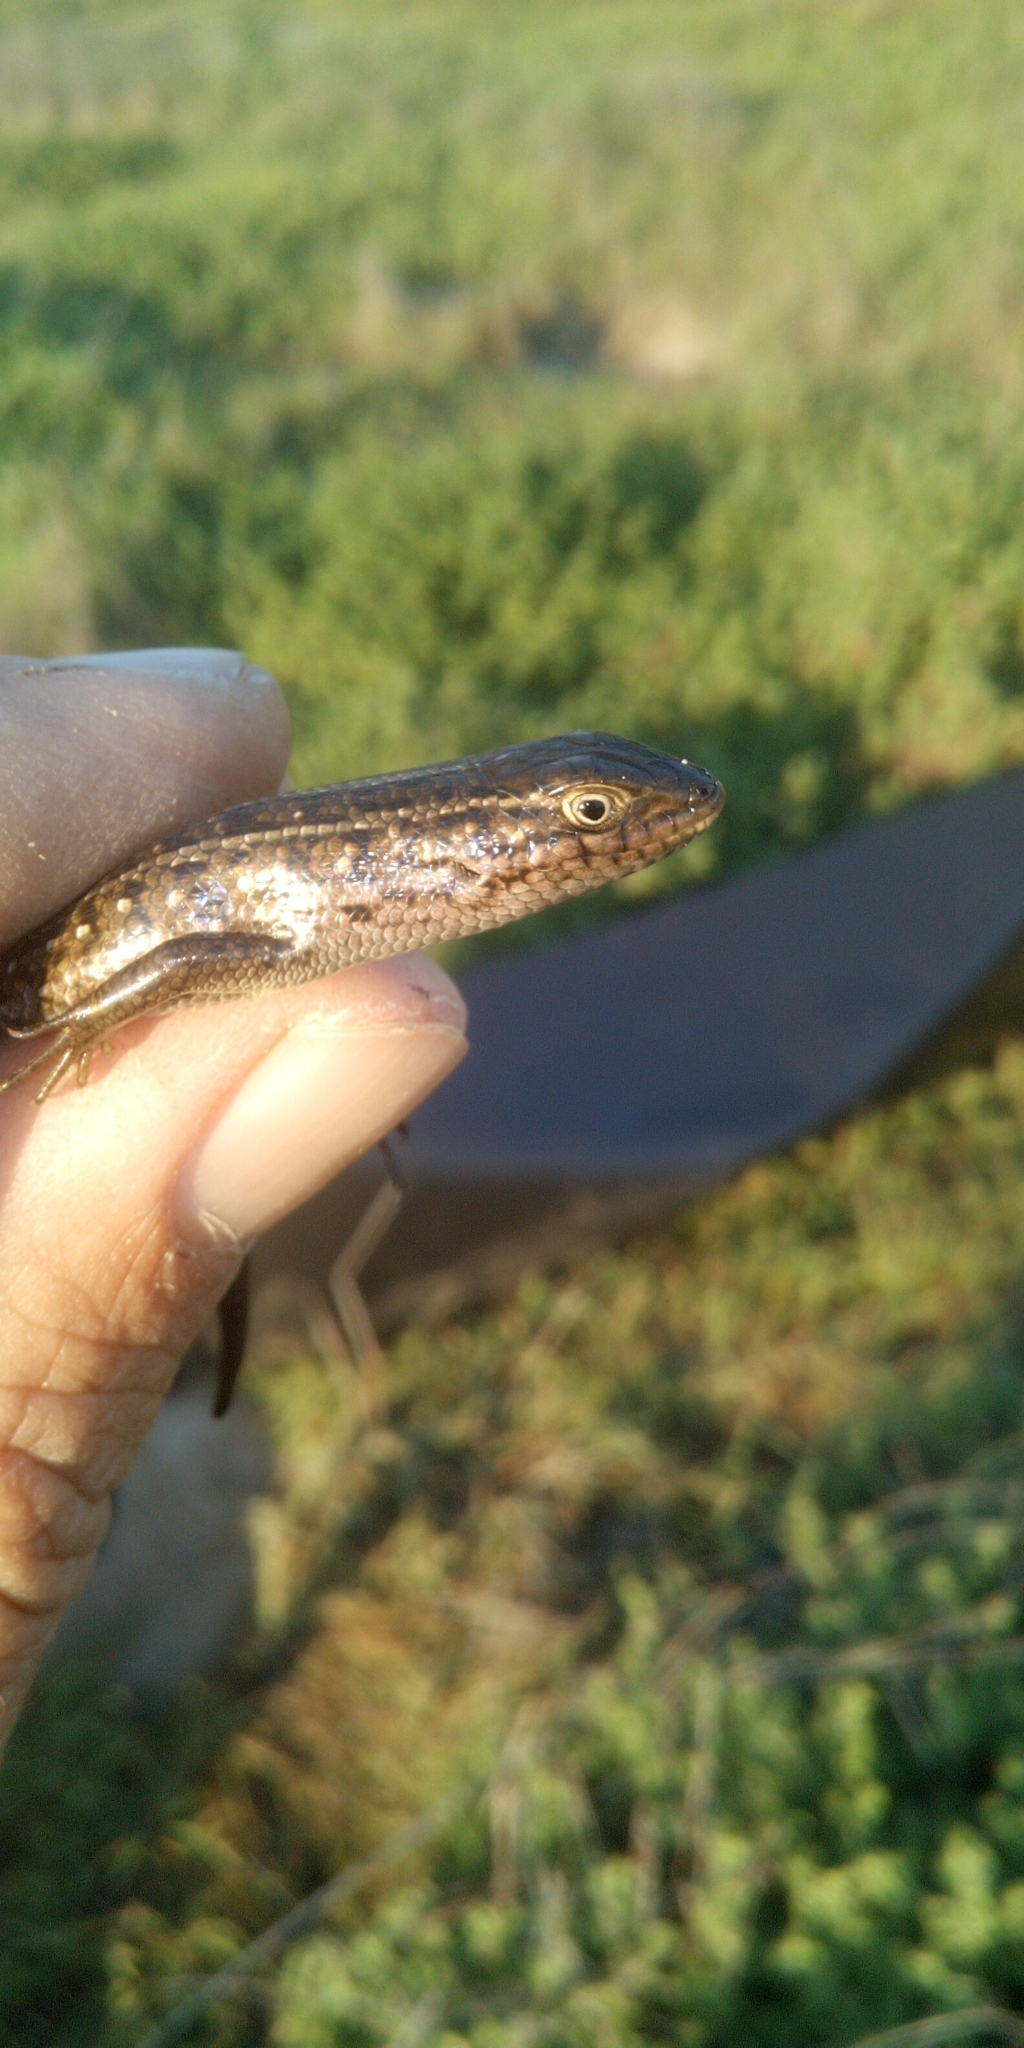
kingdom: Animalia
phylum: Chordata
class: Squamata
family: Scincidae
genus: Trachylepis
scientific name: Trachylepis capensis
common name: Cape skink
